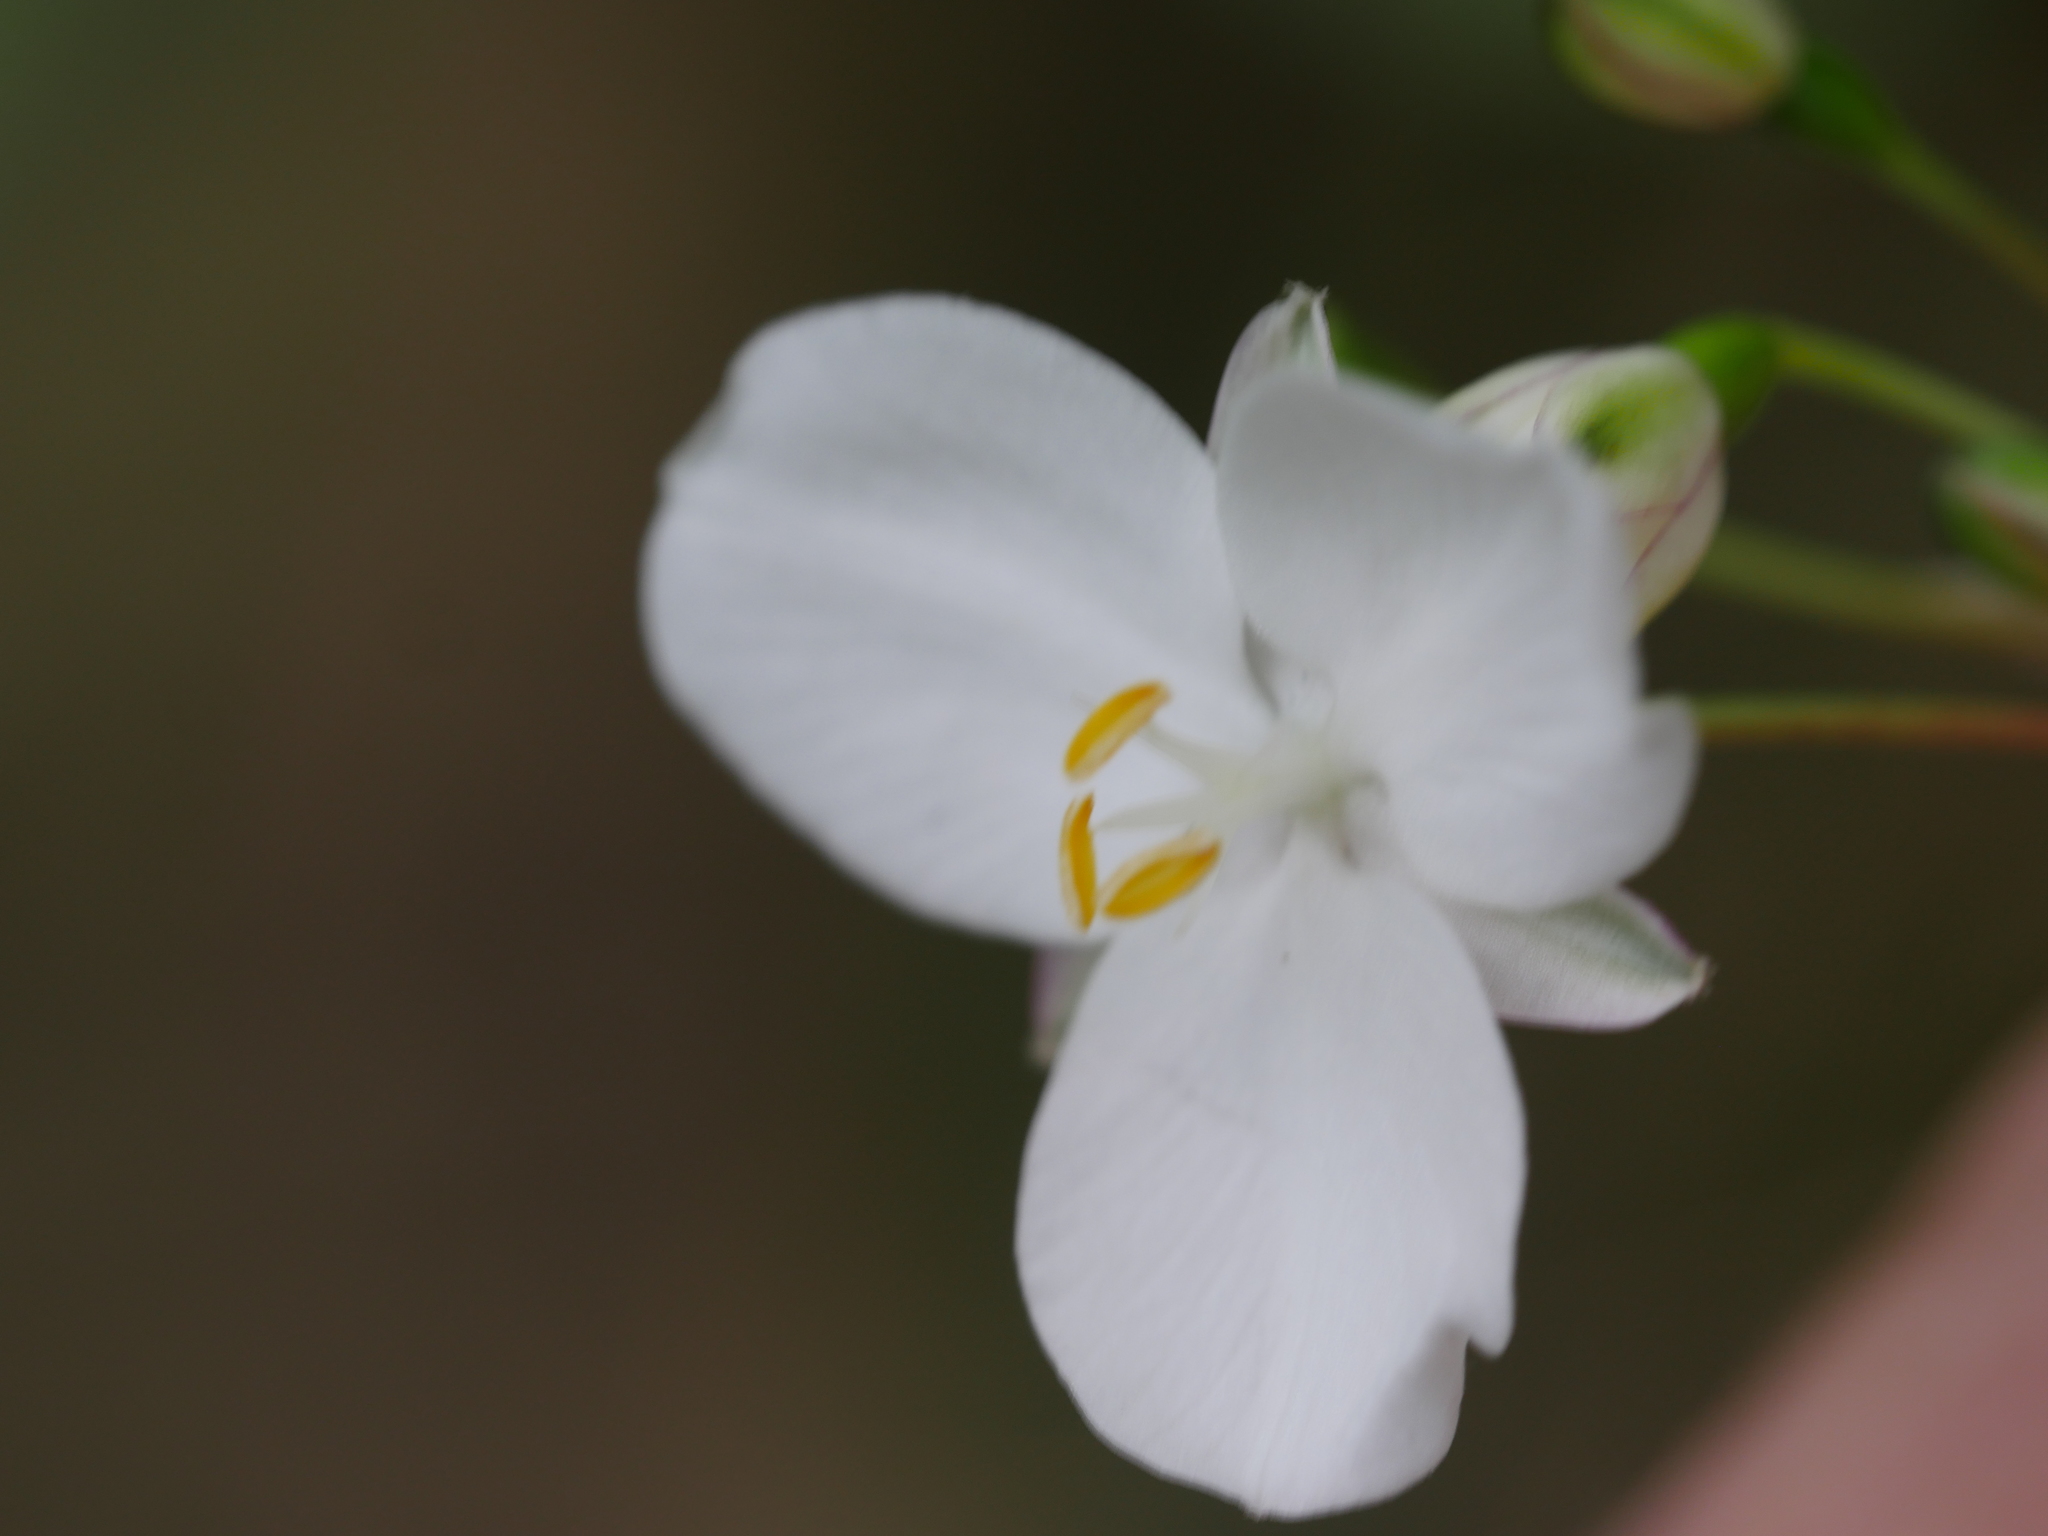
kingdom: Plantae
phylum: Tracheophyta
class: Liliopsida
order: Asparagales
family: Iridaceae
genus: Libertia
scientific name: Libertia grandiflora
